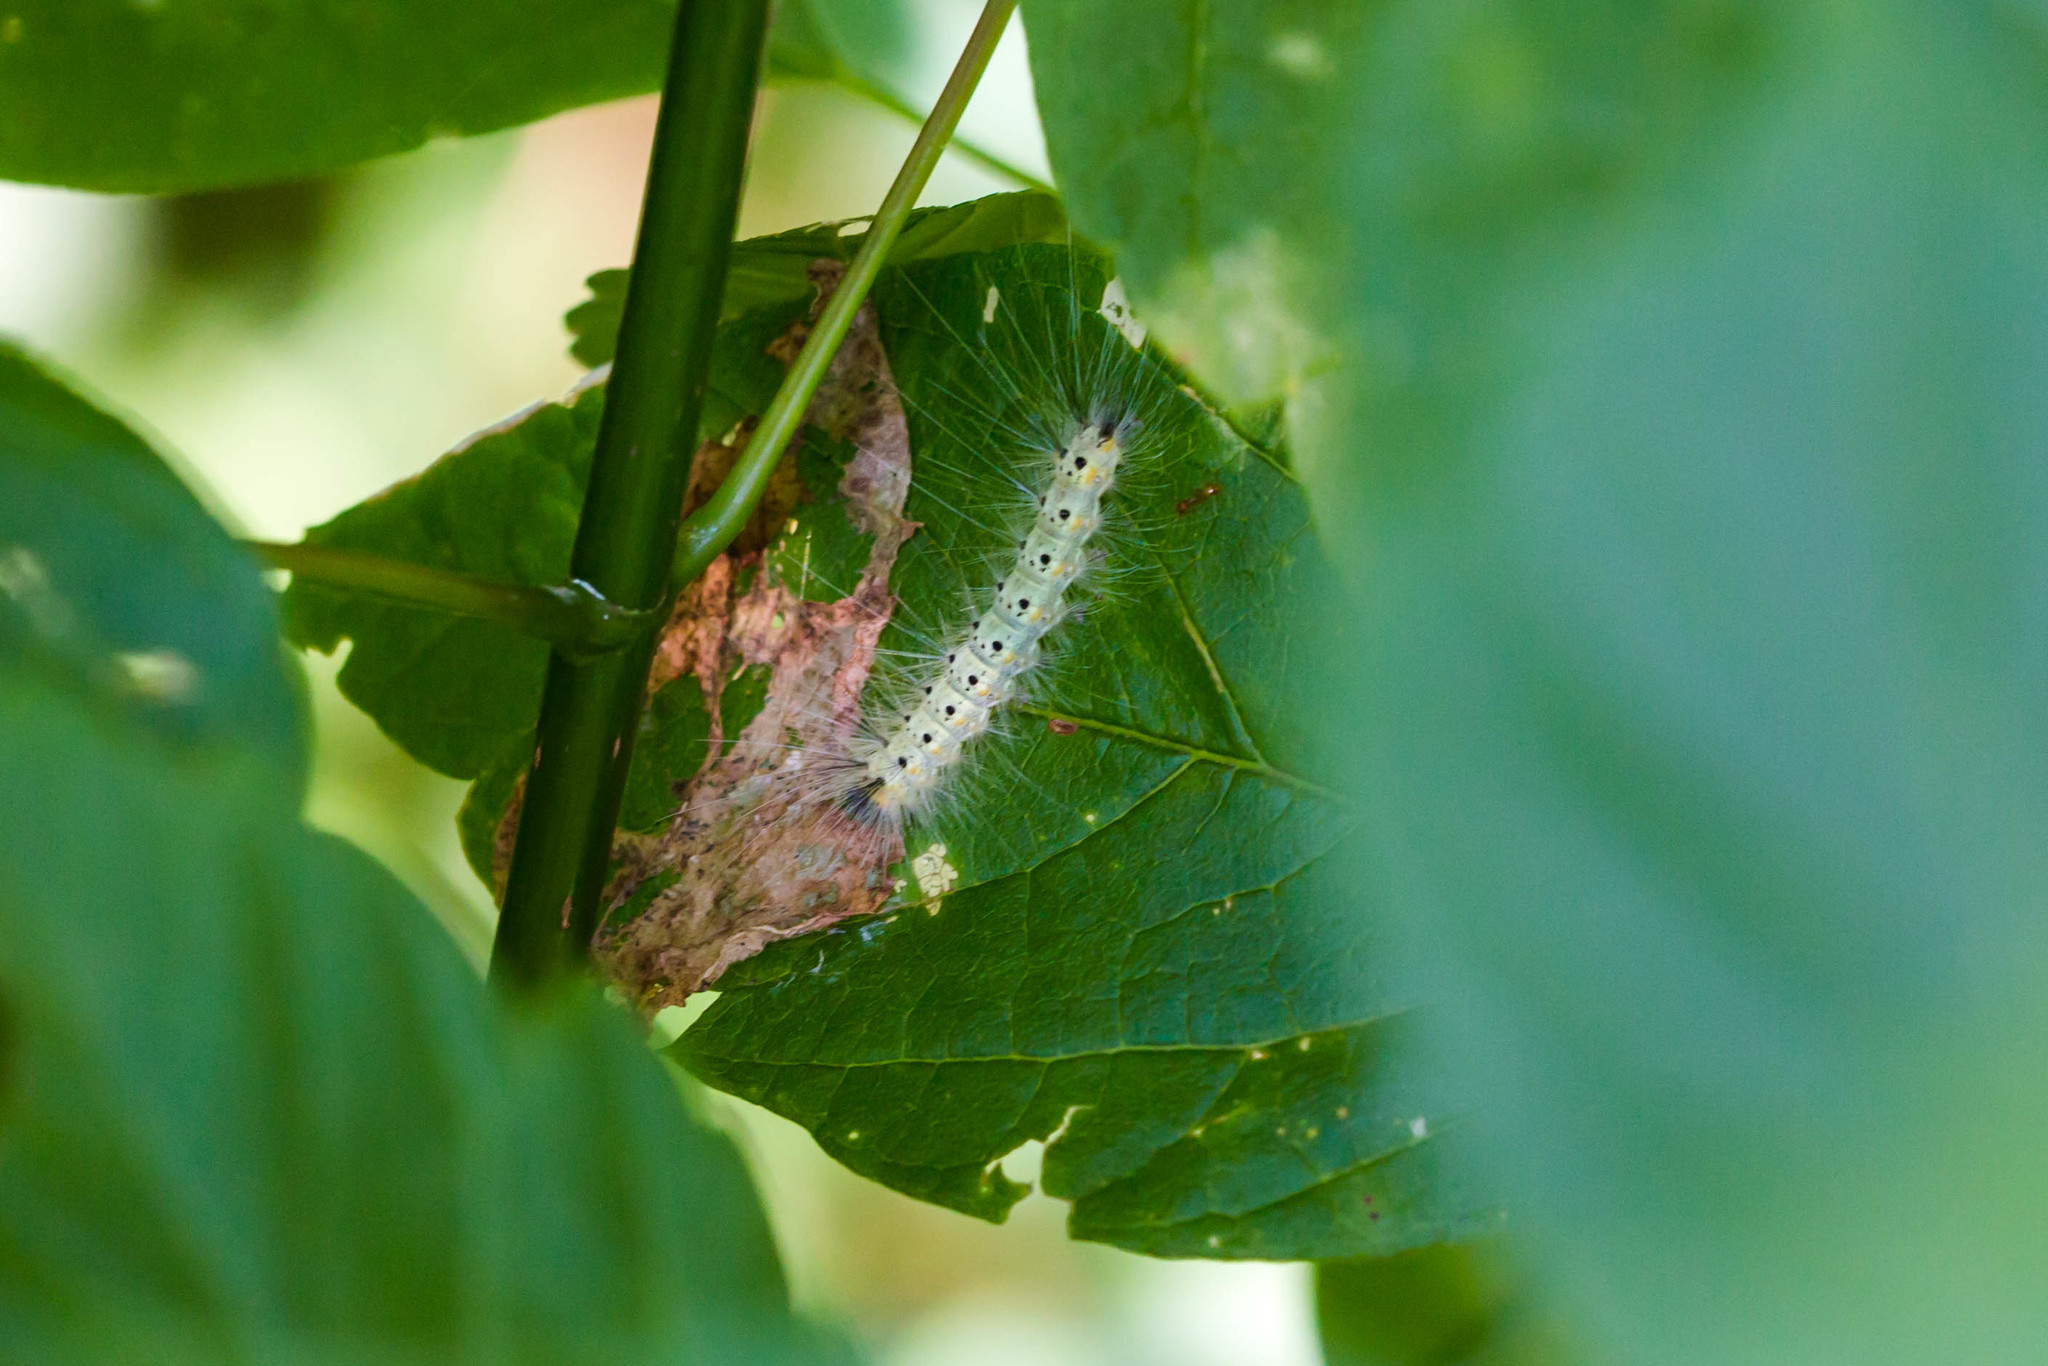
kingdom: Animalia
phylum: Arthropoda
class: Insecta
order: Lepidoptera
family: Erebidae
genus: Hyphantria
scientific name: Hyphantria cunea
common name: American white moth
